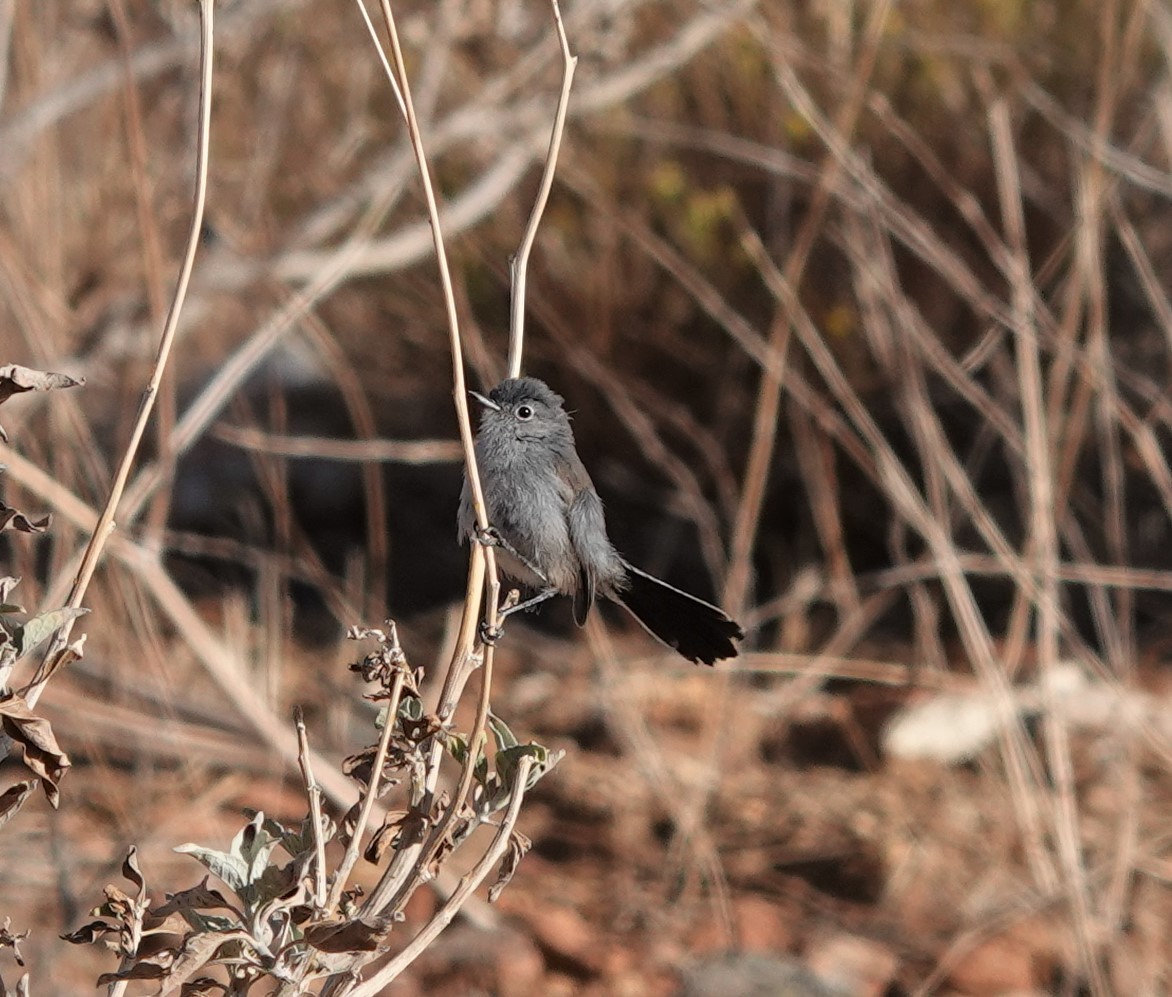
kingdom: Animalia
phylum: Chordata
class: Aves
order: Passeriformes
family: Polioptilidae
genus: Polioptila
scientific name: Polioptila californica
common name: California gnatcatcher
